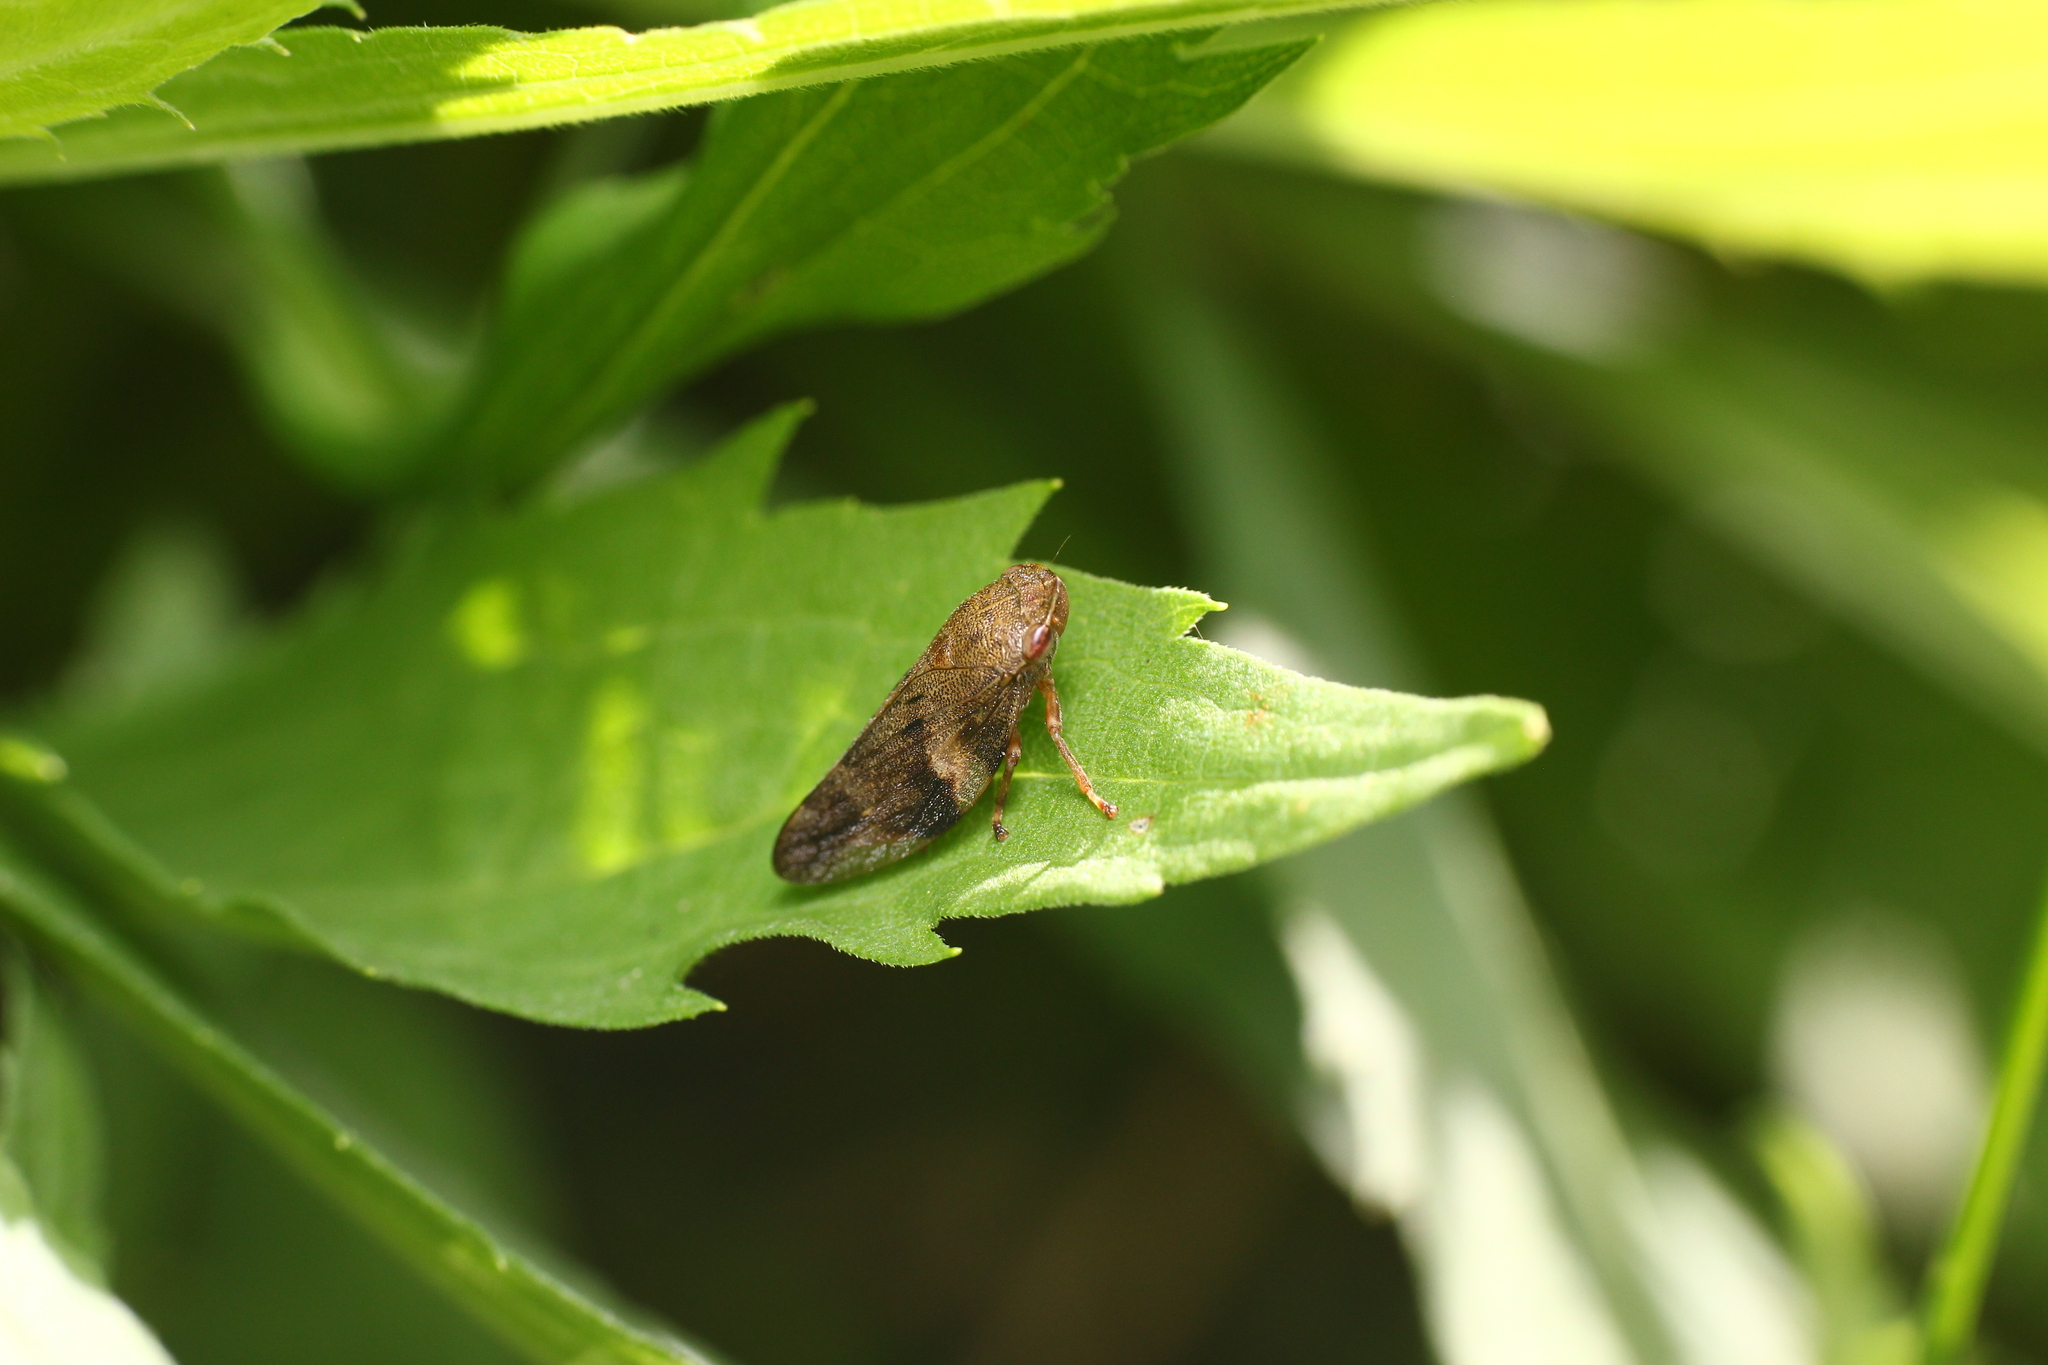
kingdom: Animalia
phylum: Arthropoda
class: Insecta
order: Hemiptera
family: Aphrophoridae
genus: Aphrophora
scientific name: Aphrophora alni
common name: European alder spittlebug
